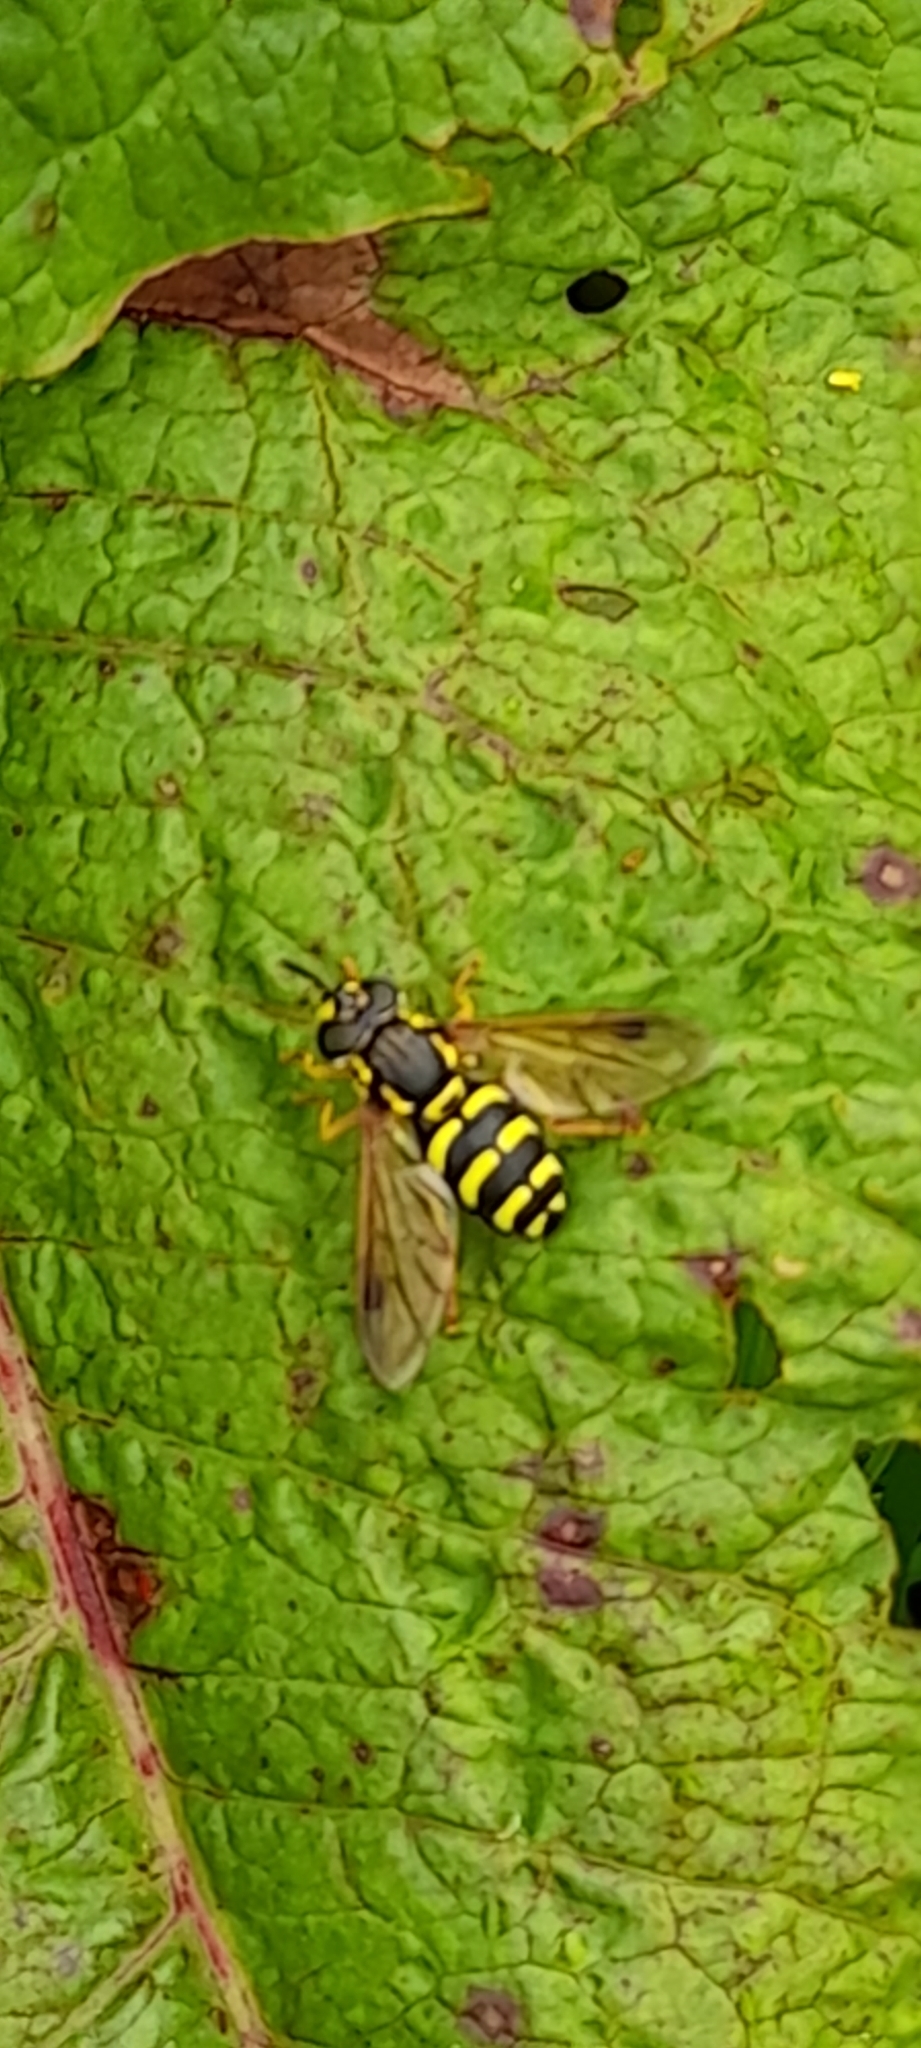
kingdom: Animalia
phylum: Arthropoda
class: Insecta
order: Diptera
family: Syrphidae
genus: Chrysotoxum
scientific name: Chrysotoxum festivum
